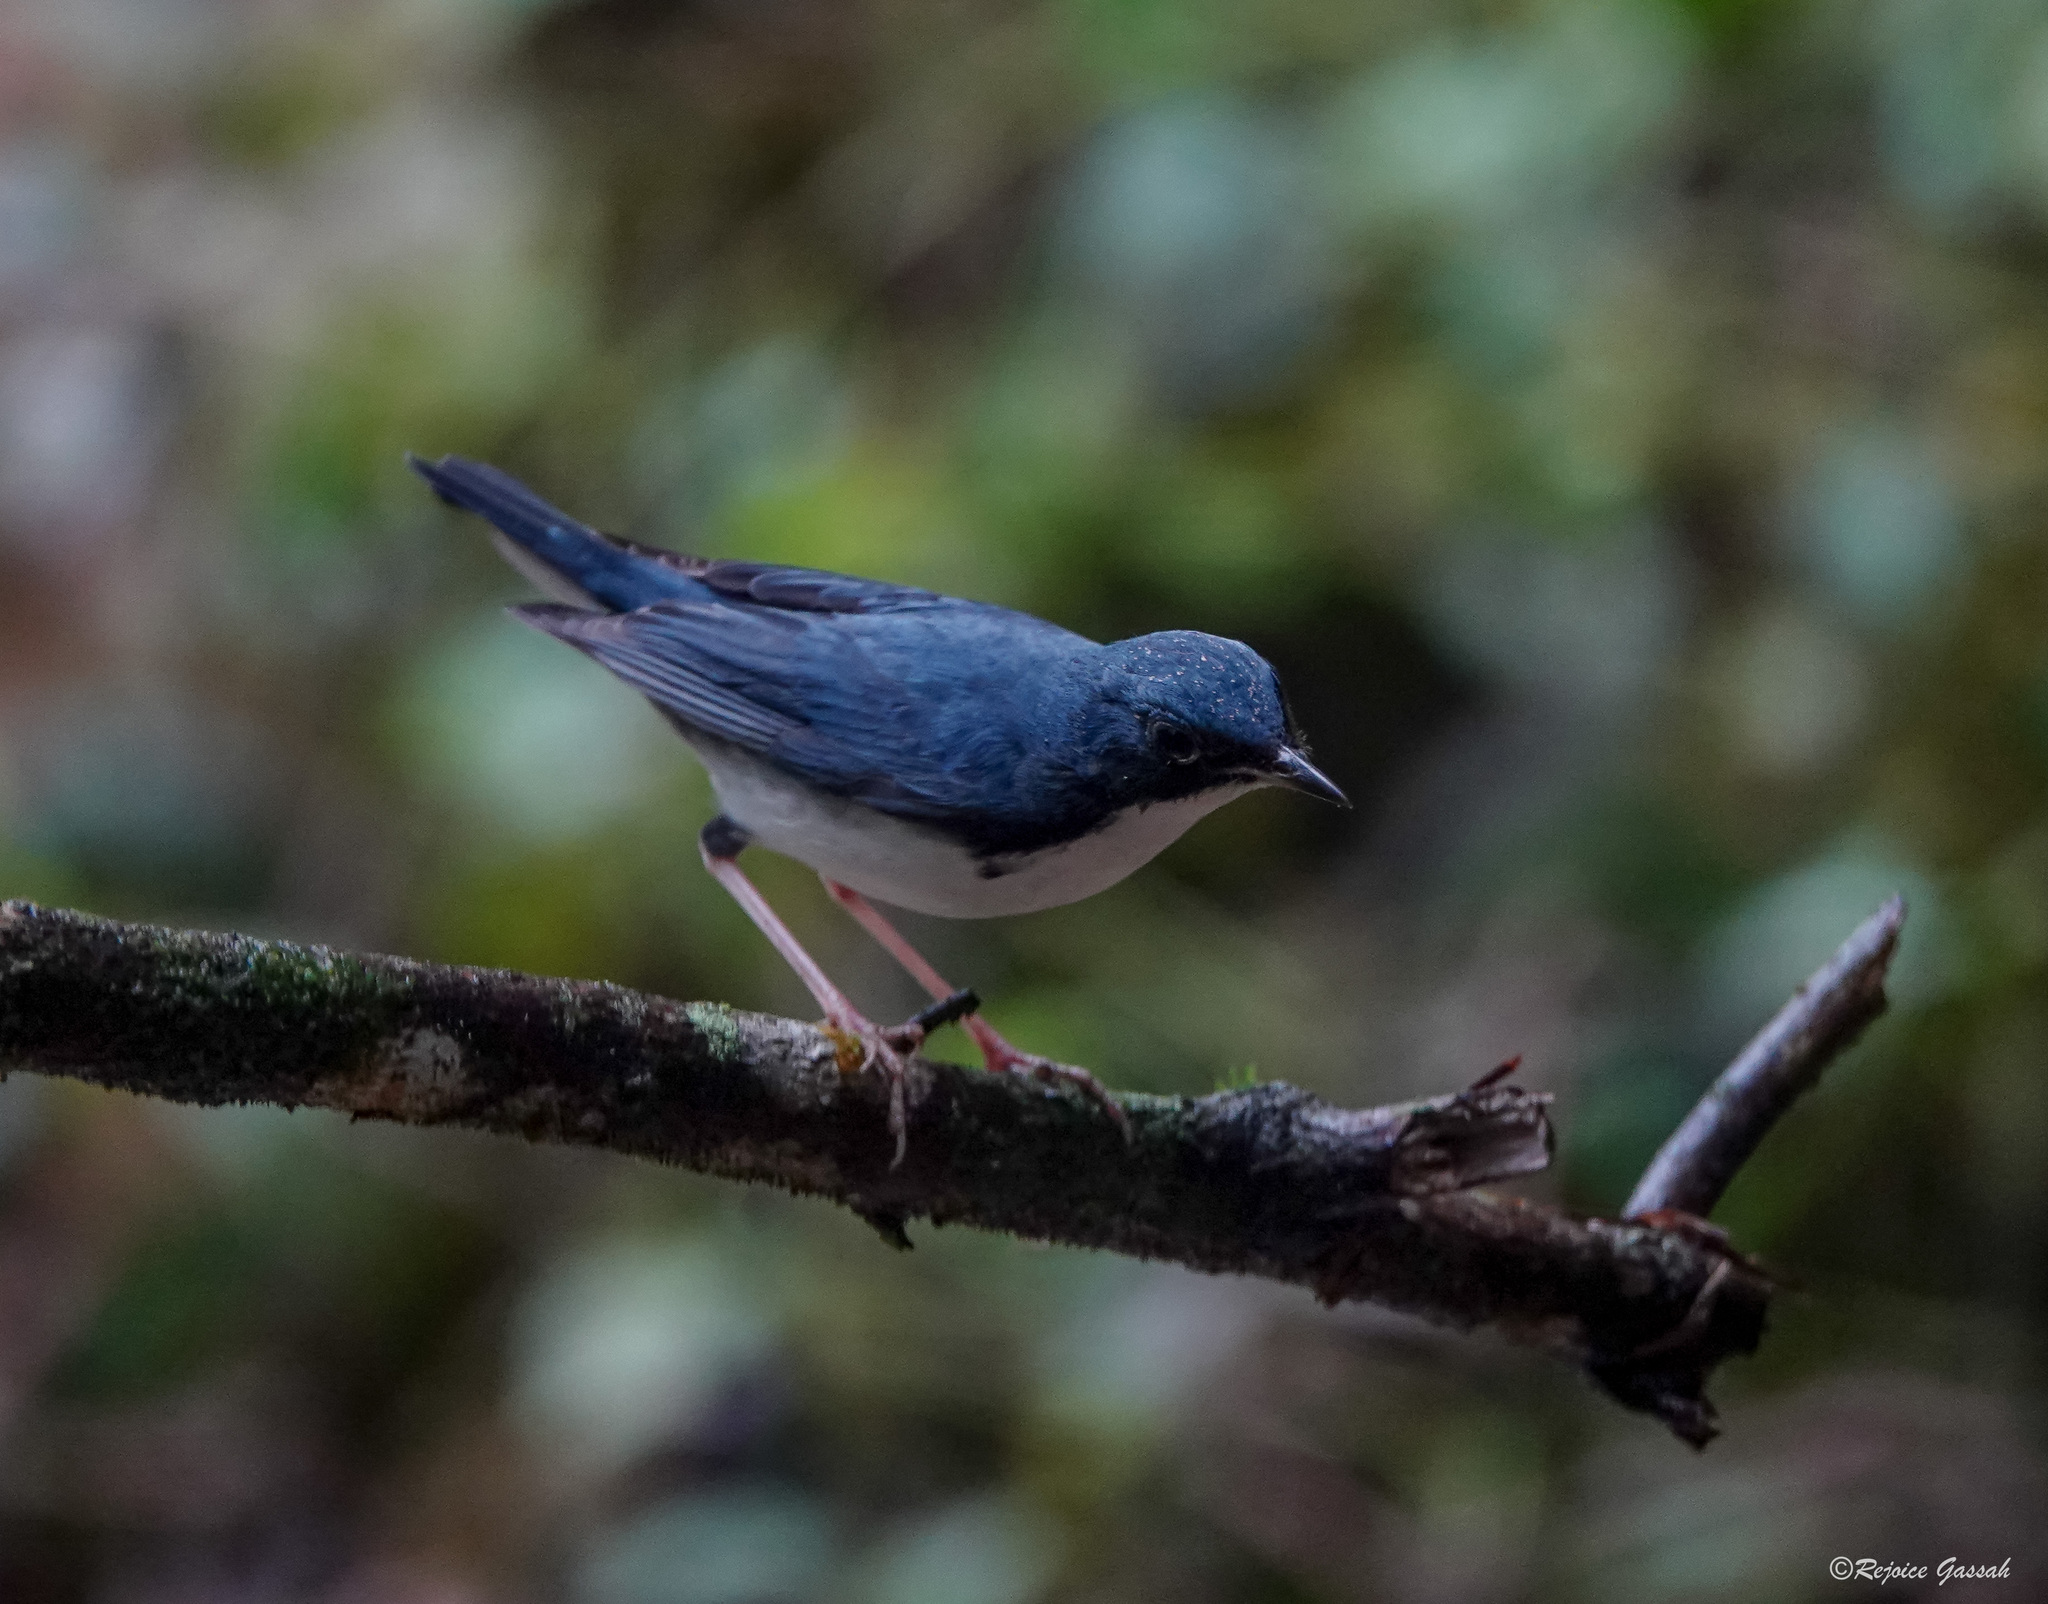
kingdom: Animalia
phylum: Chordata
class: Aves
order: Passeriformes
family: Muscicapidae
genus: Luscinia
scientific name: Luscinia cyane
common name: Siberian blue robin
